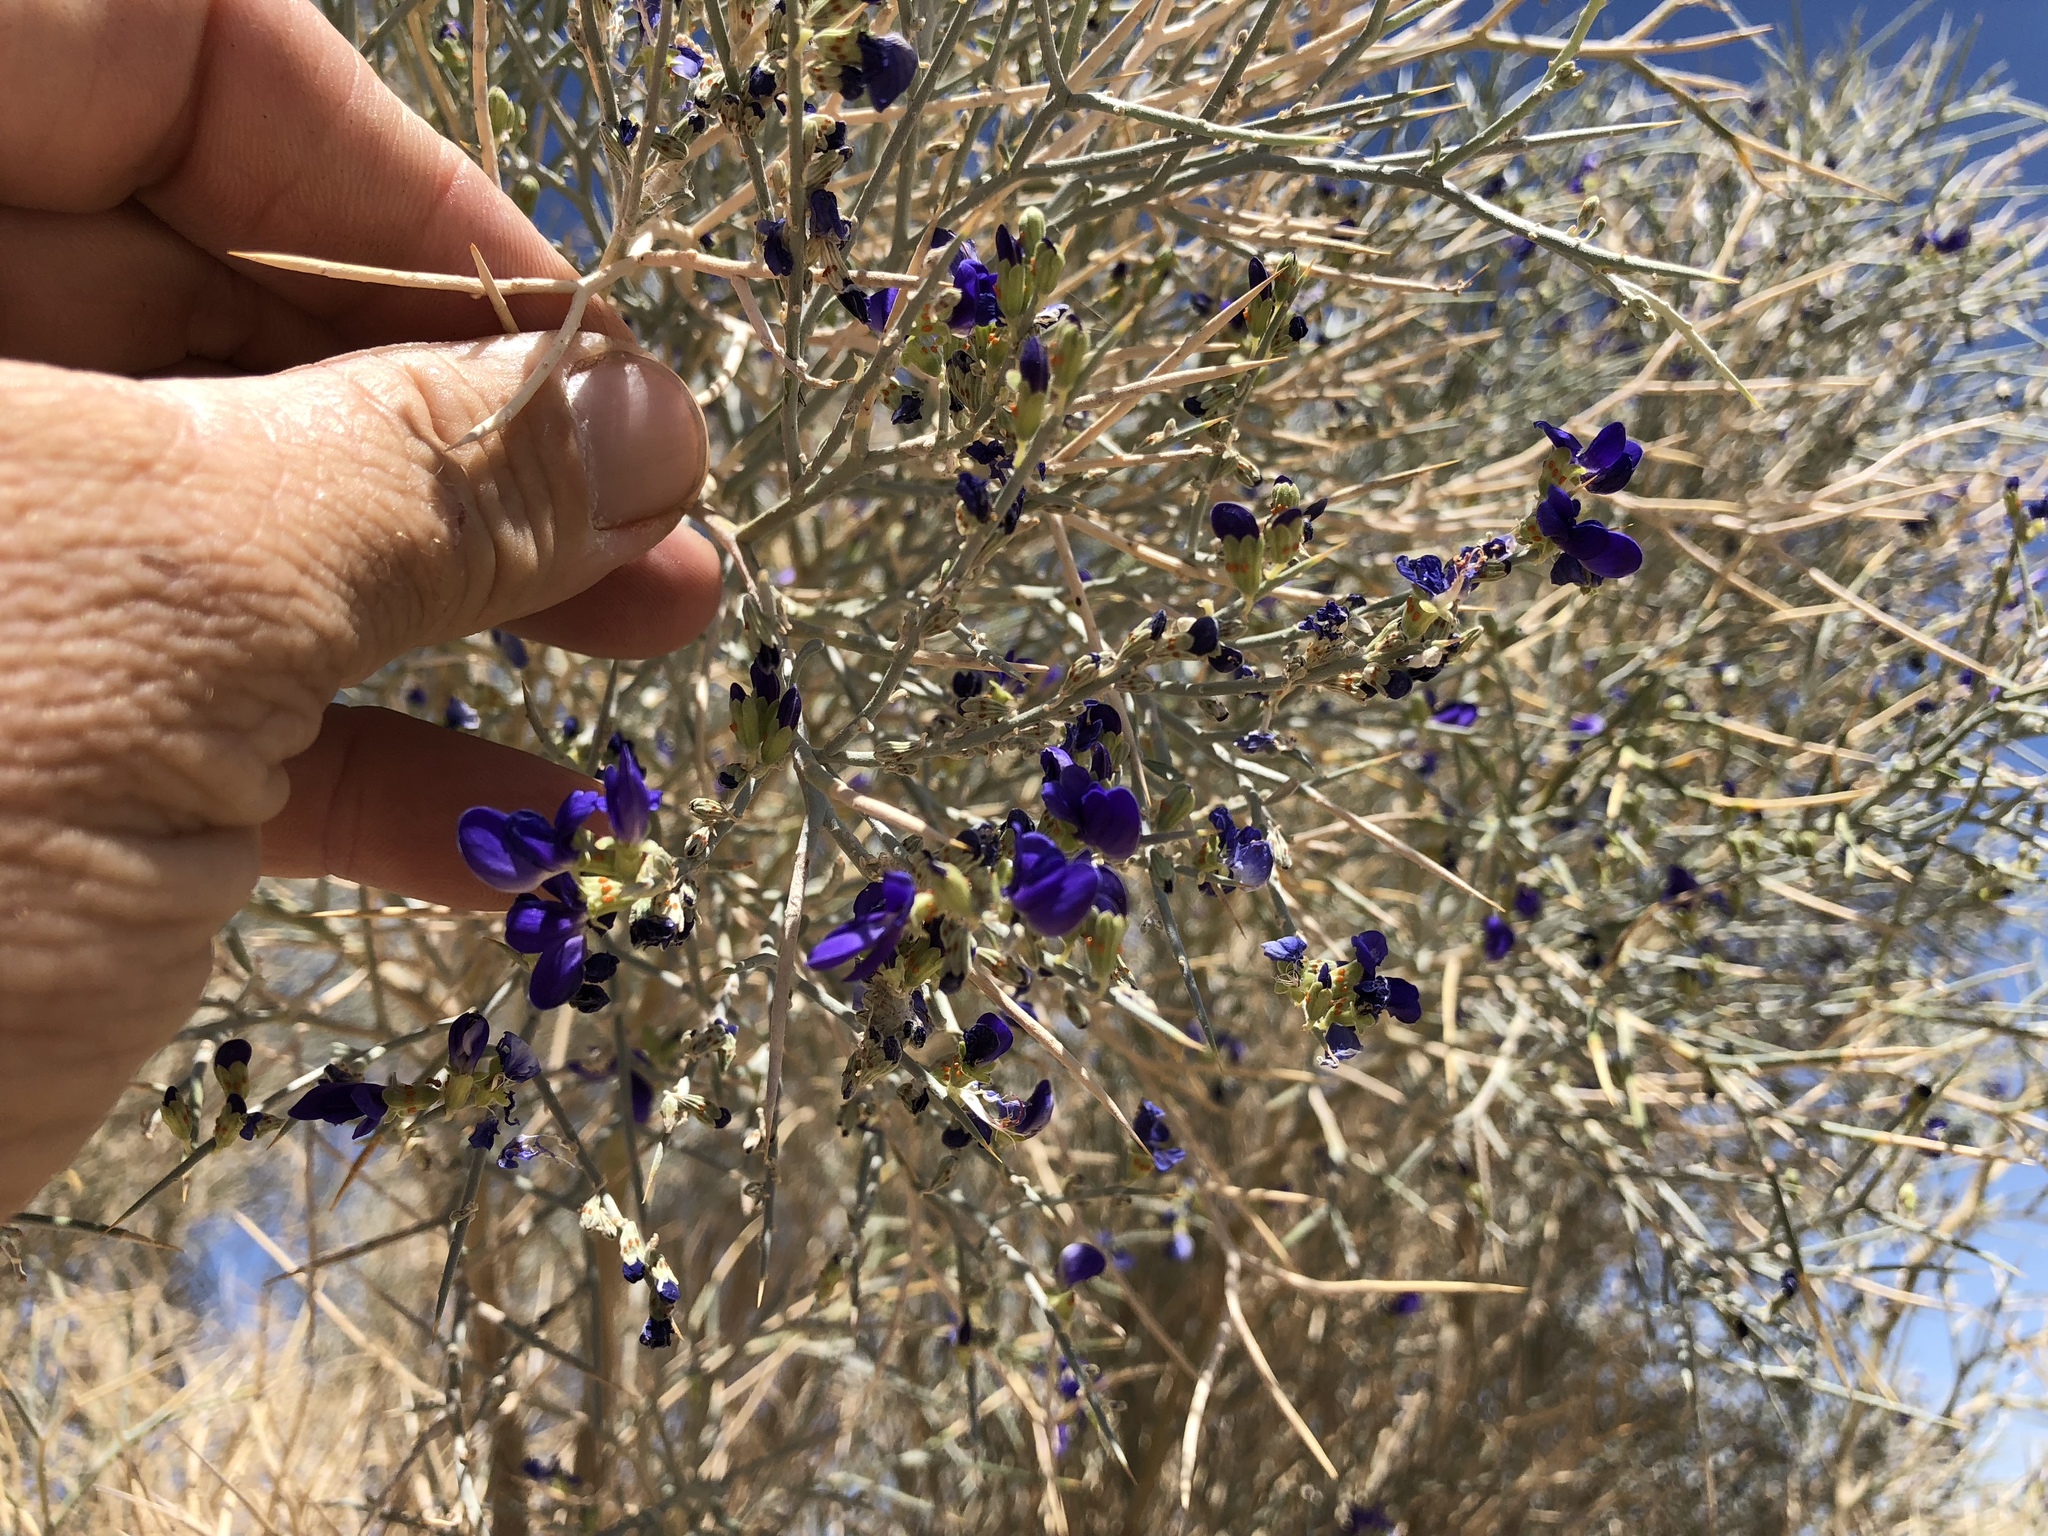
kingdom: Plantae
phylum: Tracheophyta
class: Magnoliopsida
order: Fabales
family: Fabaceae
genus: Psorothamnus
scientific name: Psorothamnus spinosus
